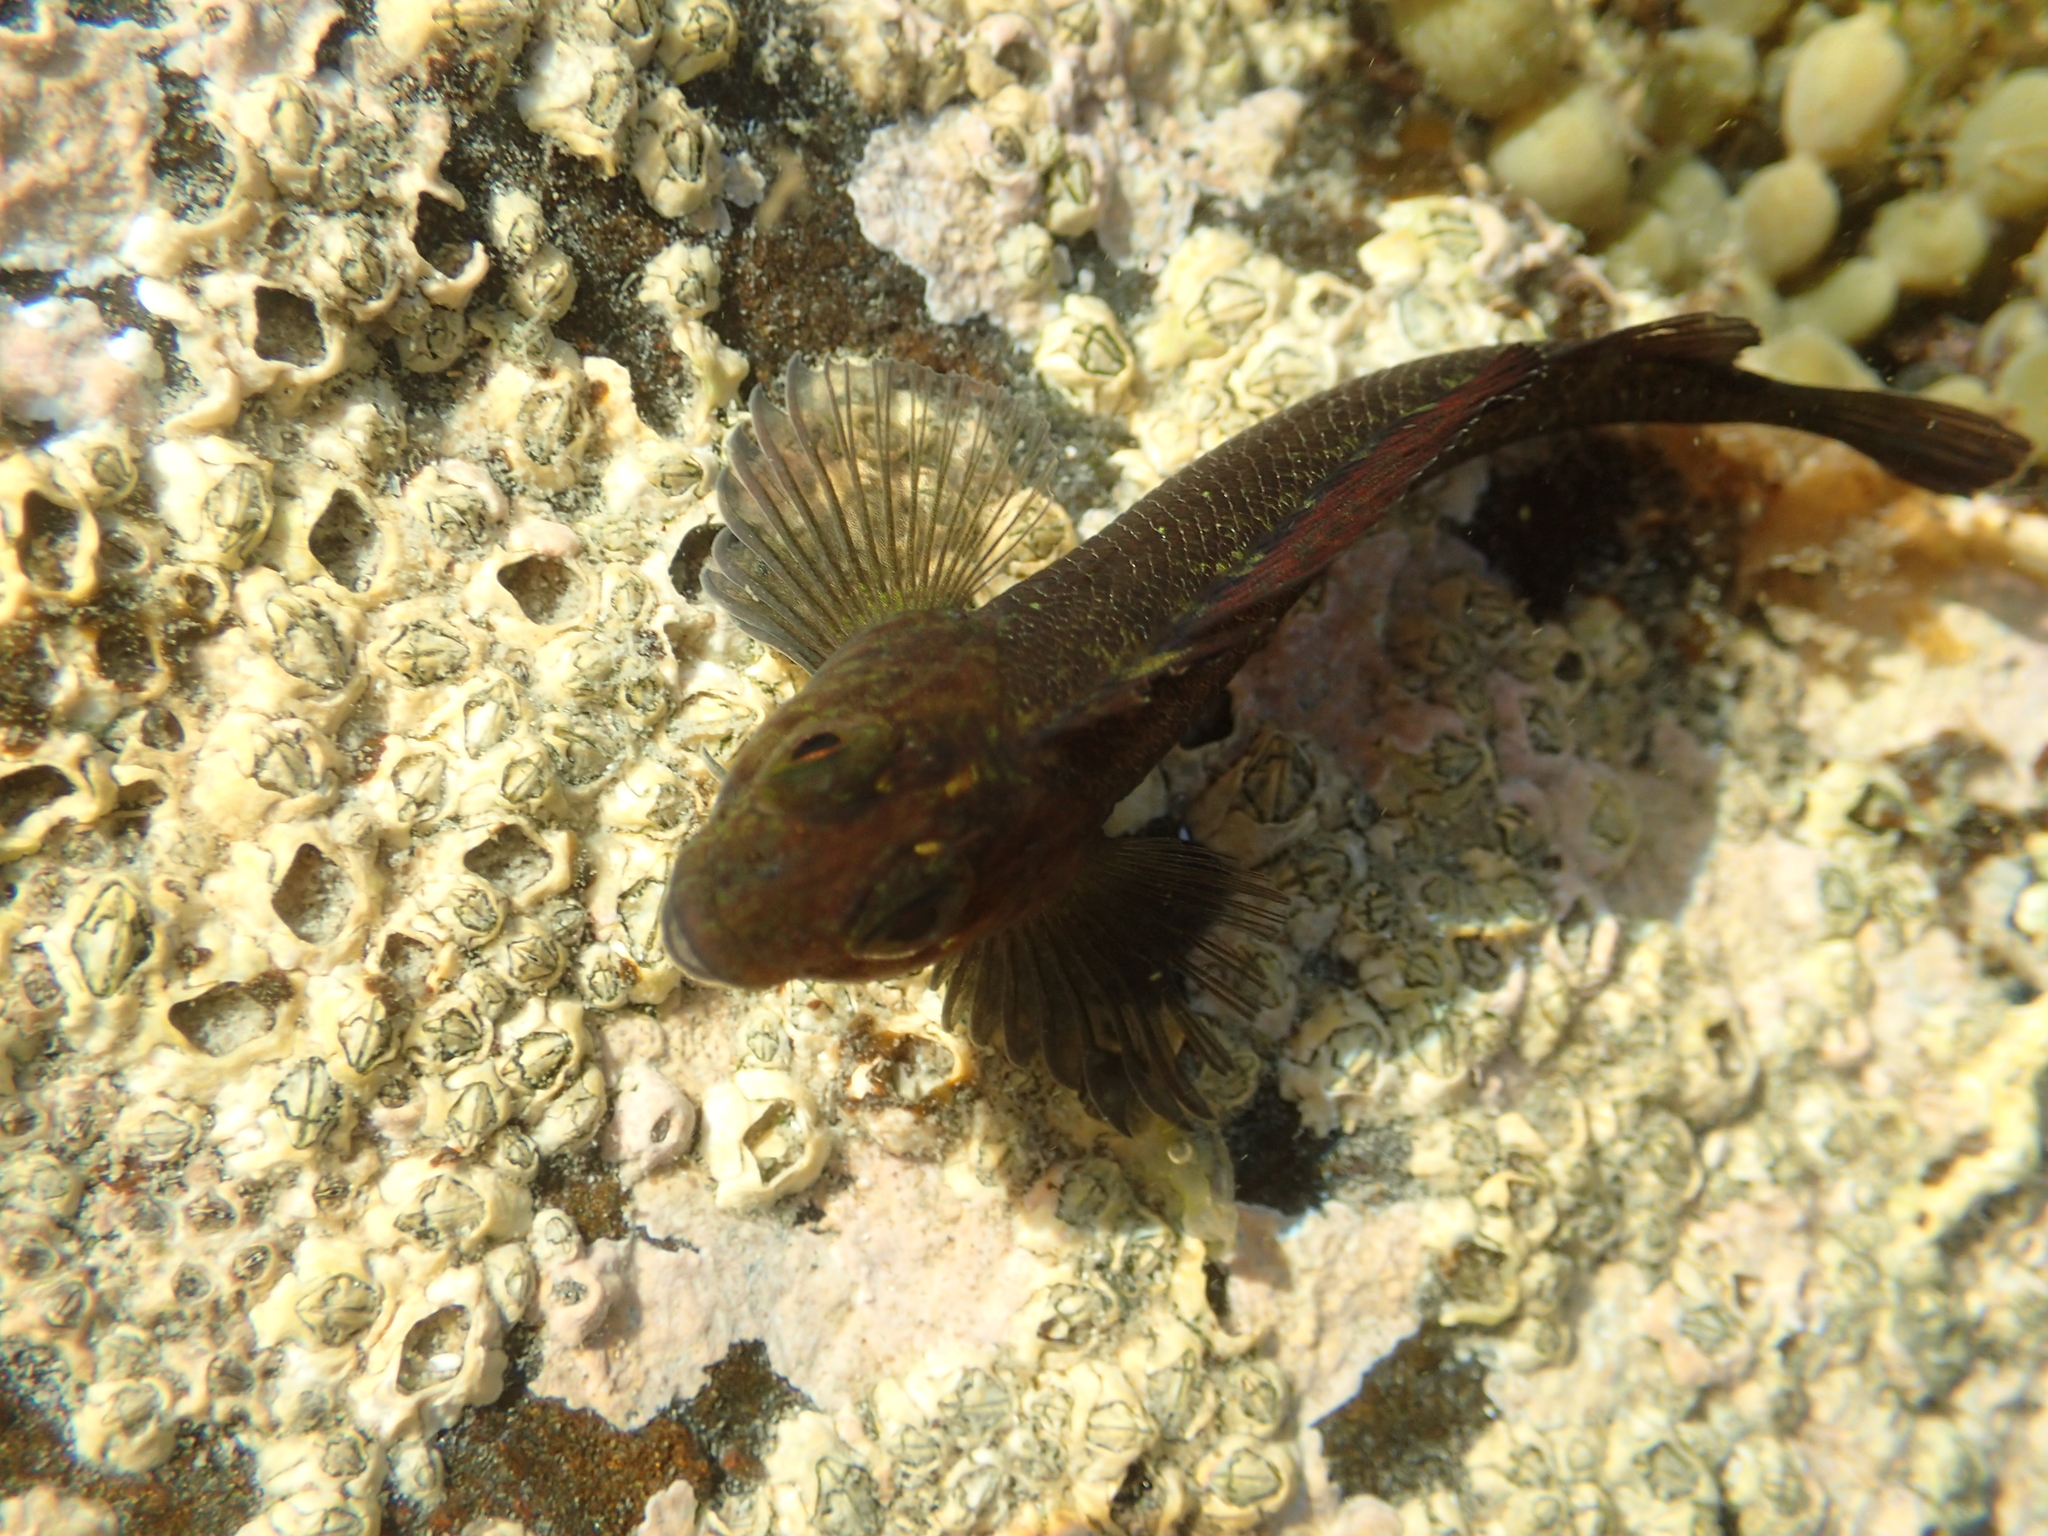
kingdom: Animalia
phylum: Chordata
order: Perciformes
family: Tripterygiidae
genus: Forsterygion
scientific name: Forsterygion lapillum
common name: Common triplefin
